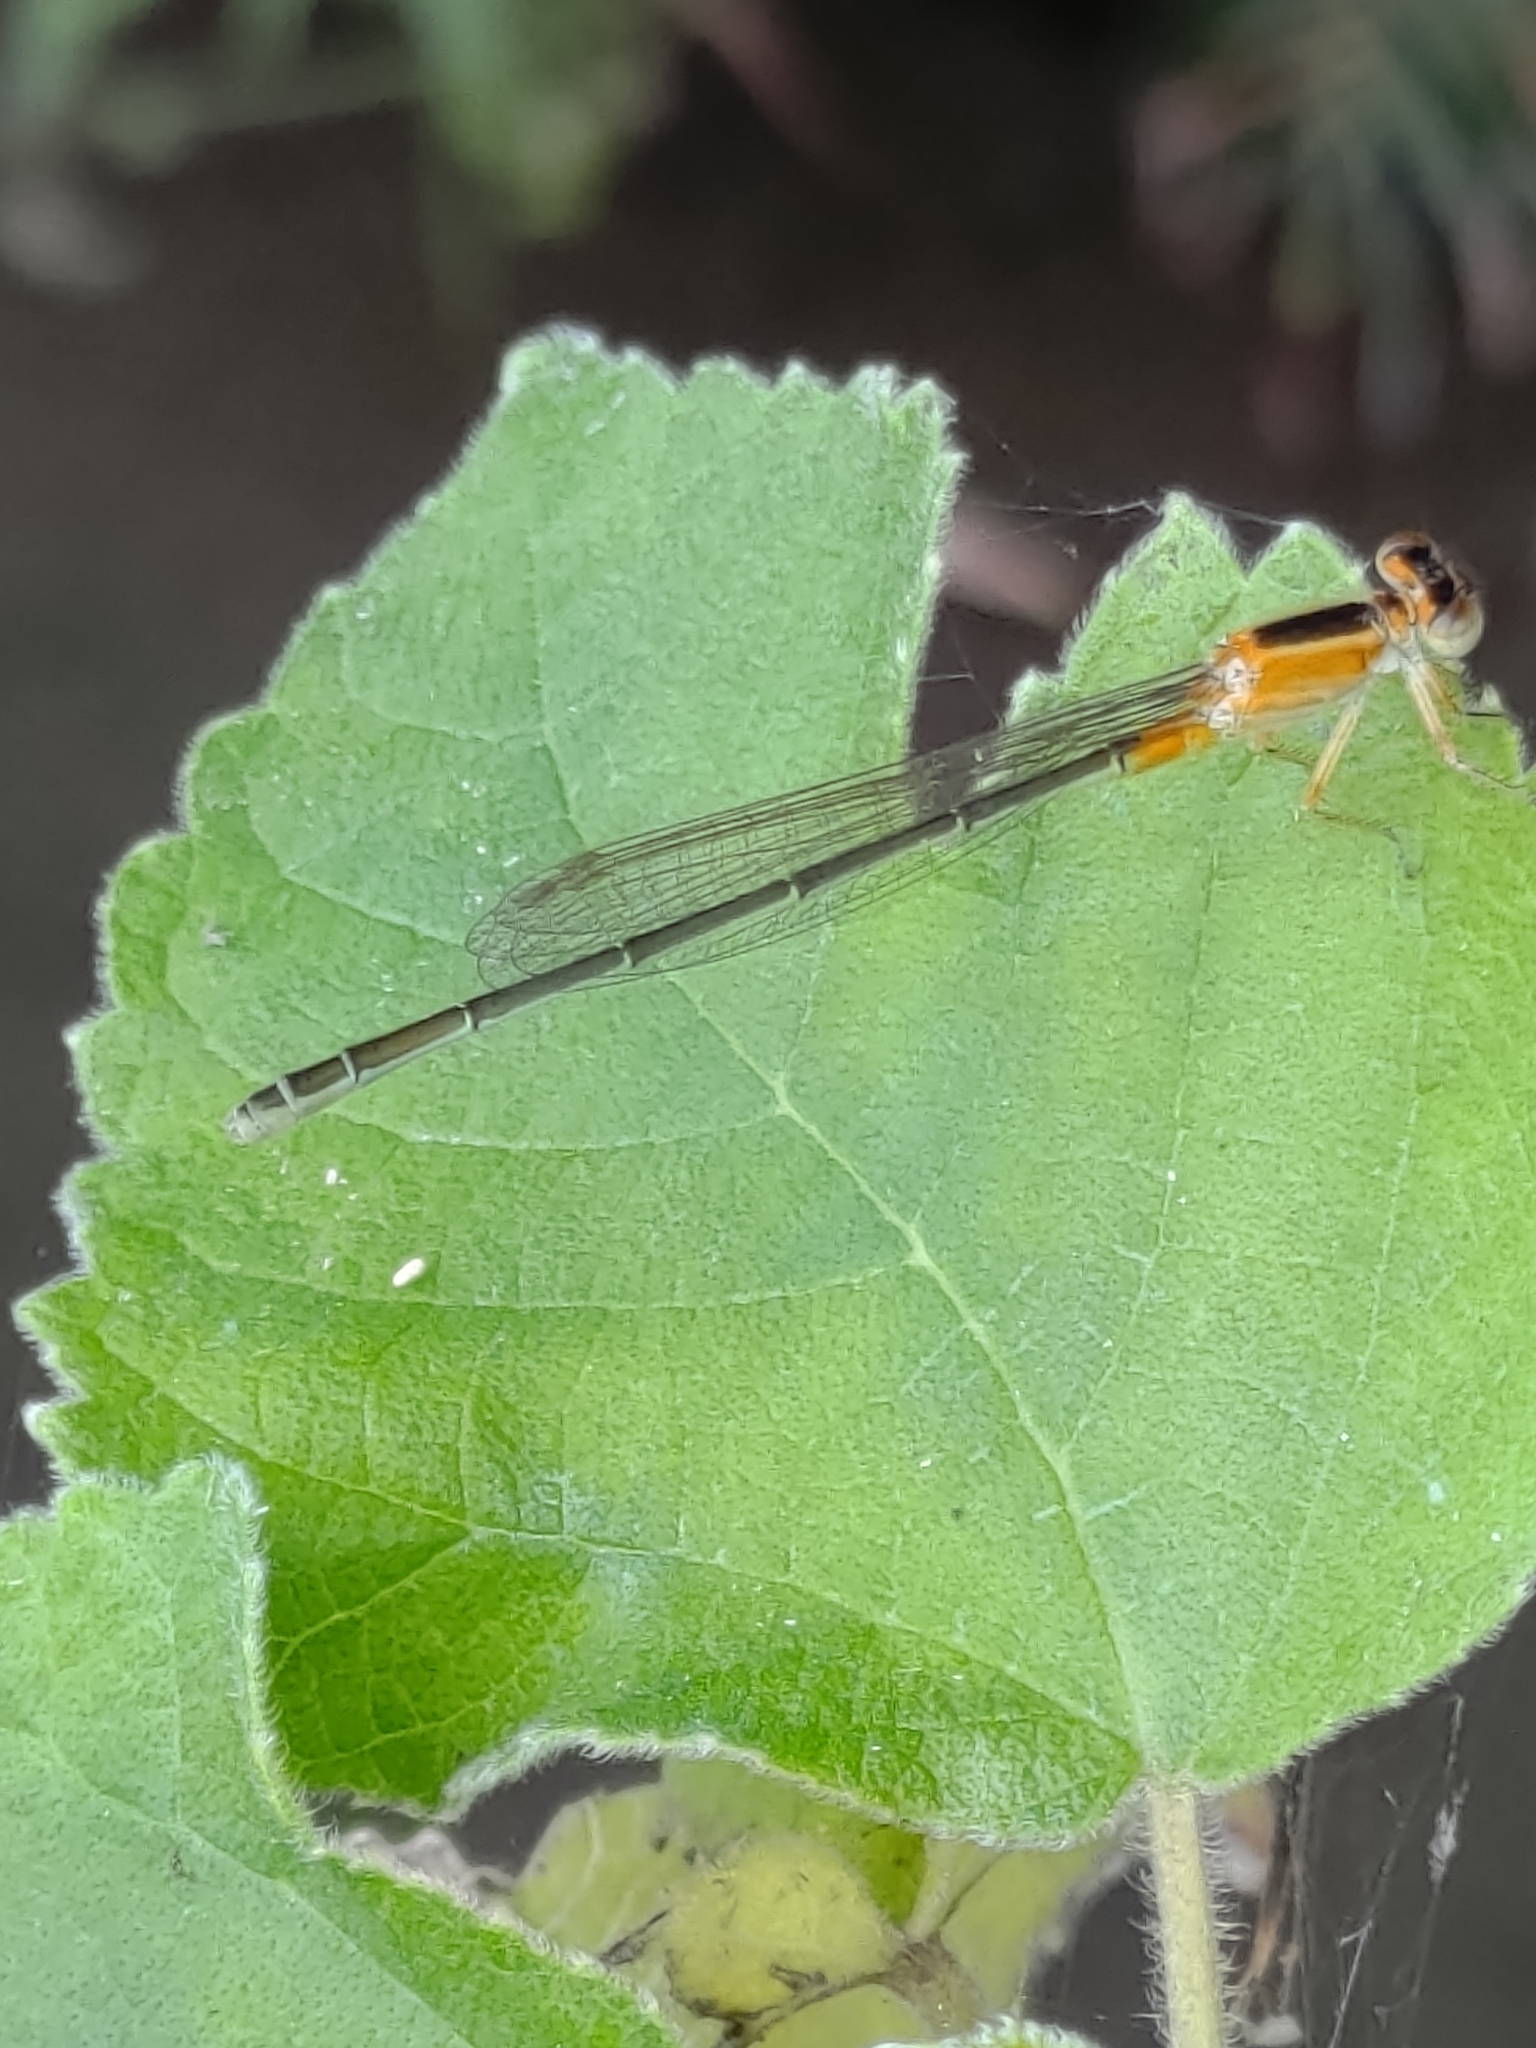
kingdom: Animalia
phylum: Arthropoda
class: Insecta
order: Odonata
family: Coenagrionidae
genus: Ischnura
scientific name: Ischnura senegalensis
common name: Tropical bluetail
